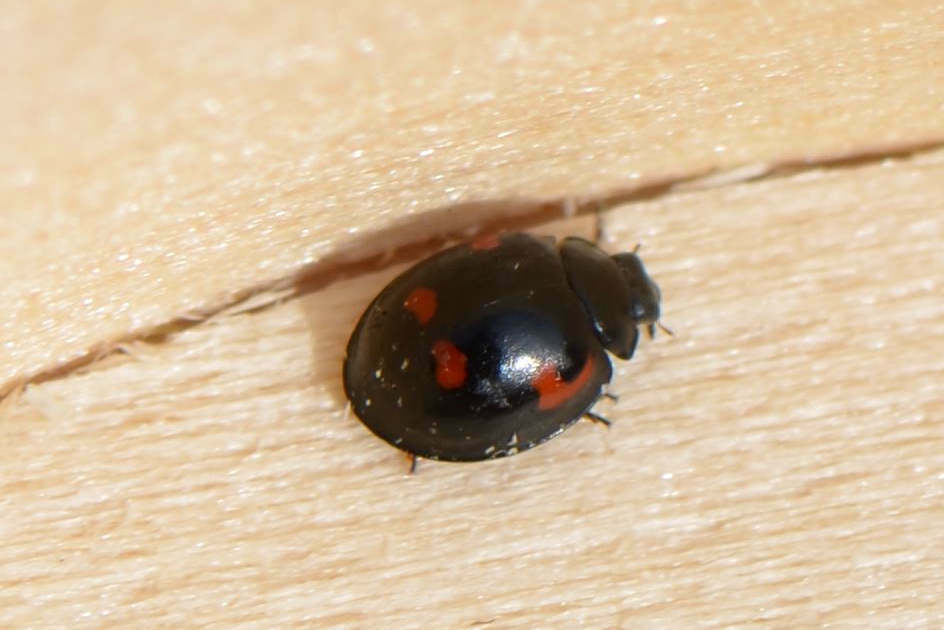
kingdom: Animalia
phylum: Arthropoda
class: Insecta
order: Coleoptera
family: Coccinellidae
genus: Brumus
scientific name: Brumus quadripustulatus
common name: Ladybird beetle
